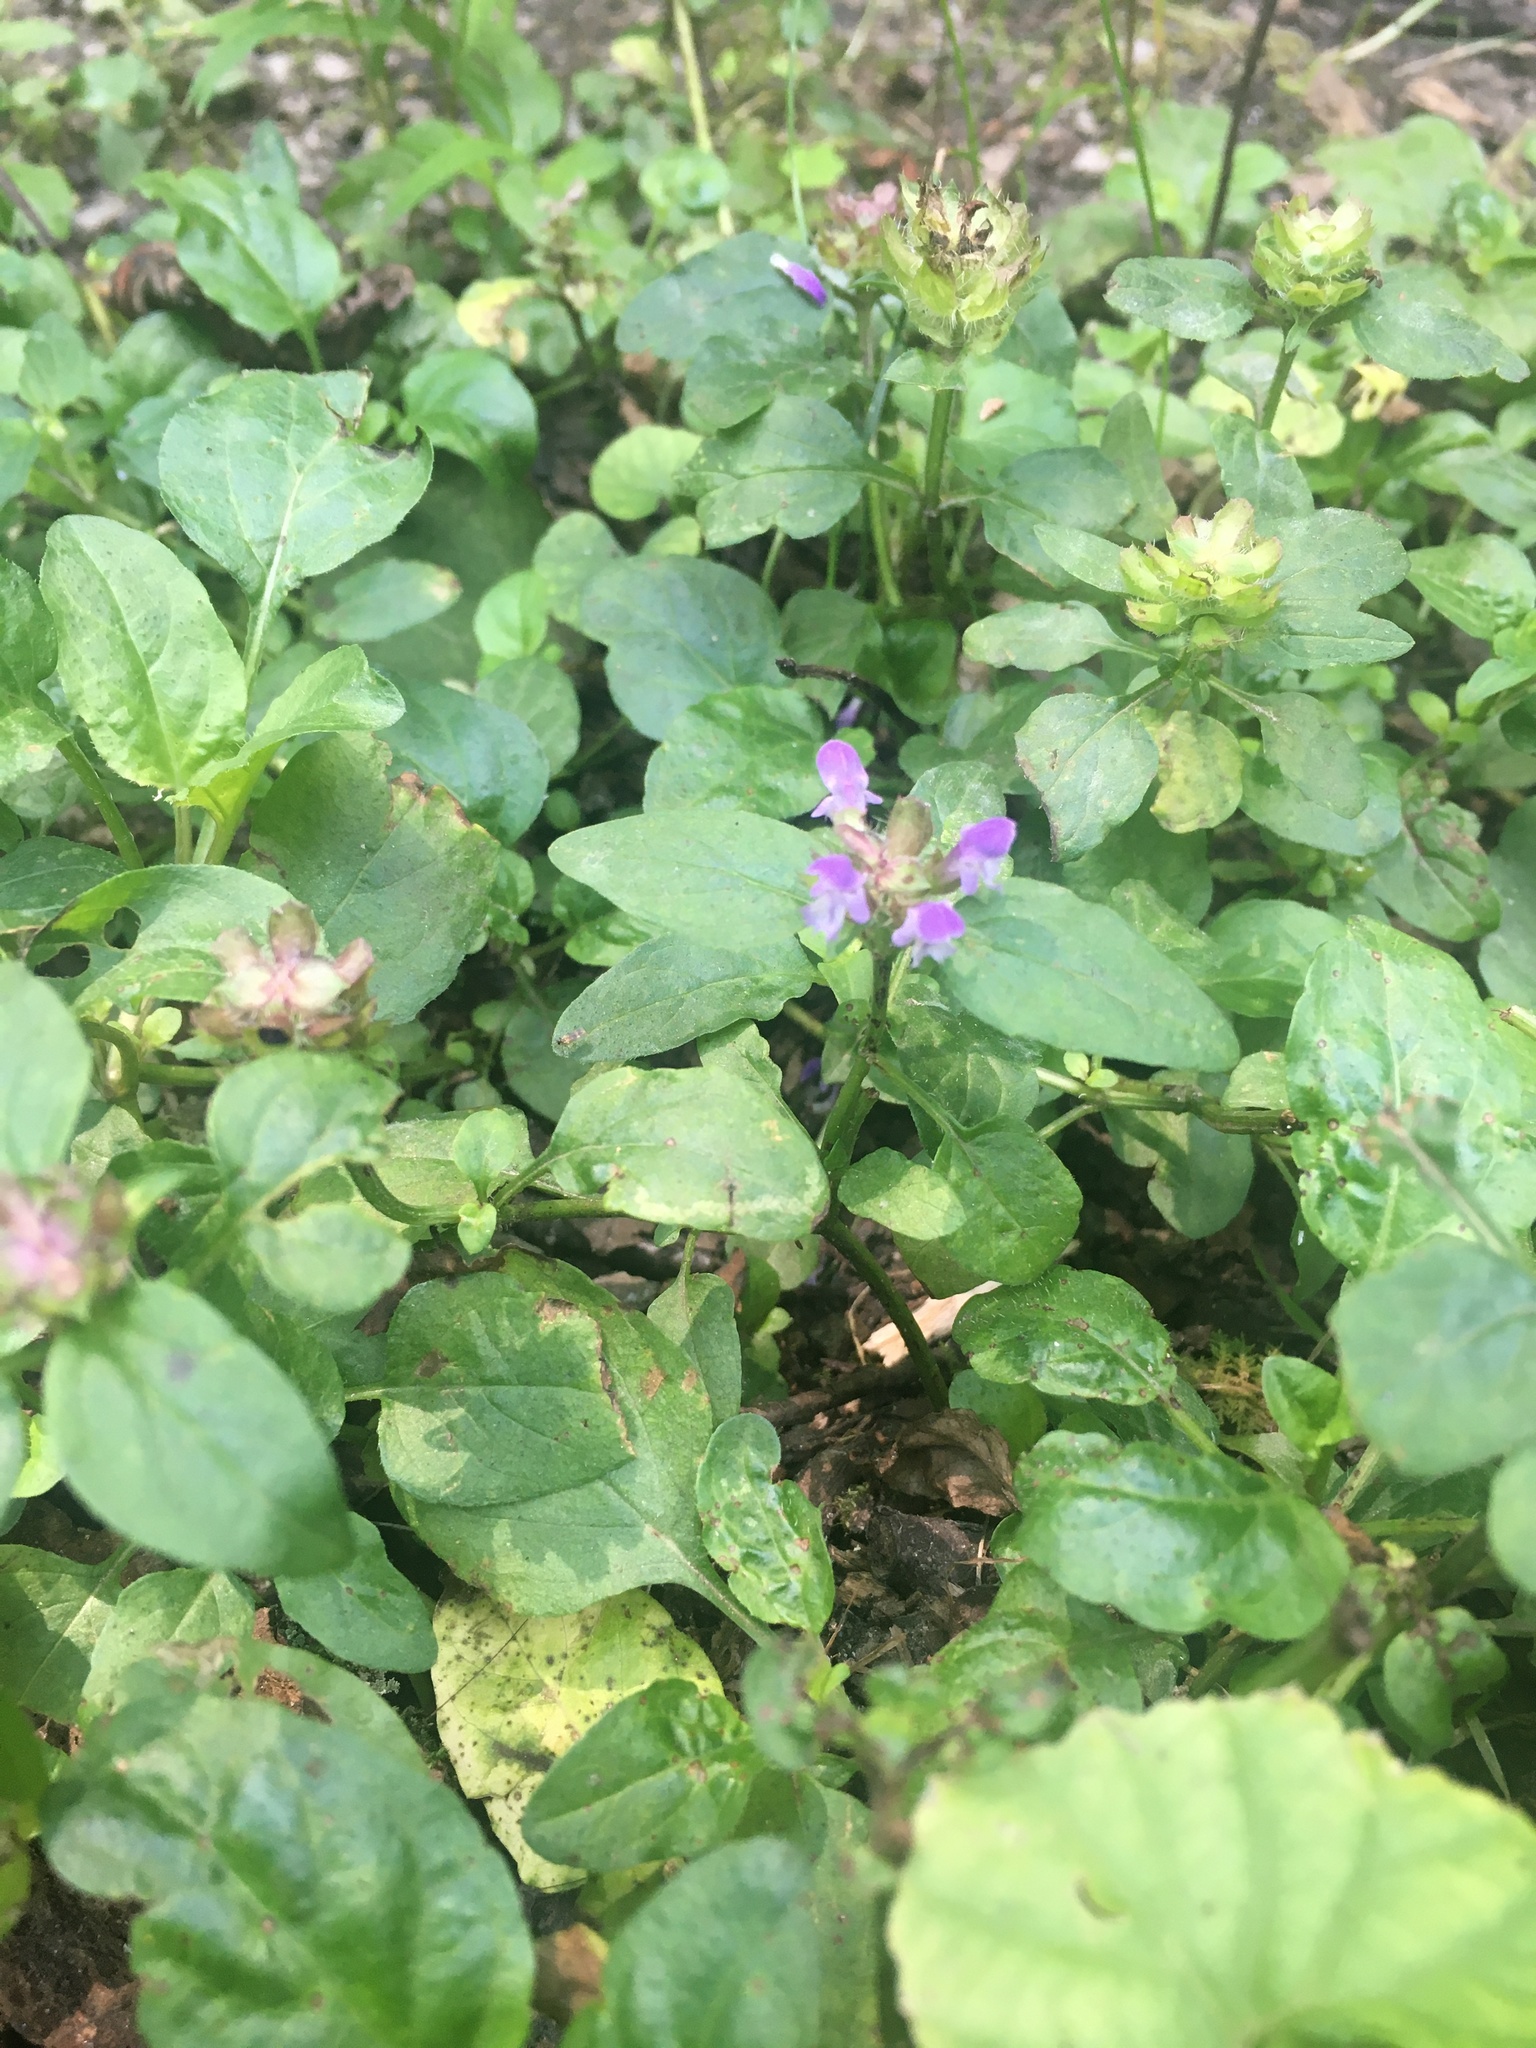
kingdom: Plantae
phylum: Tracheophyta
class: Magnoliopsida
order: Lamiales
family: Lamiaceae
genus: Prunella
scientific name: Prunella vulgaris
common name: Heal-all
